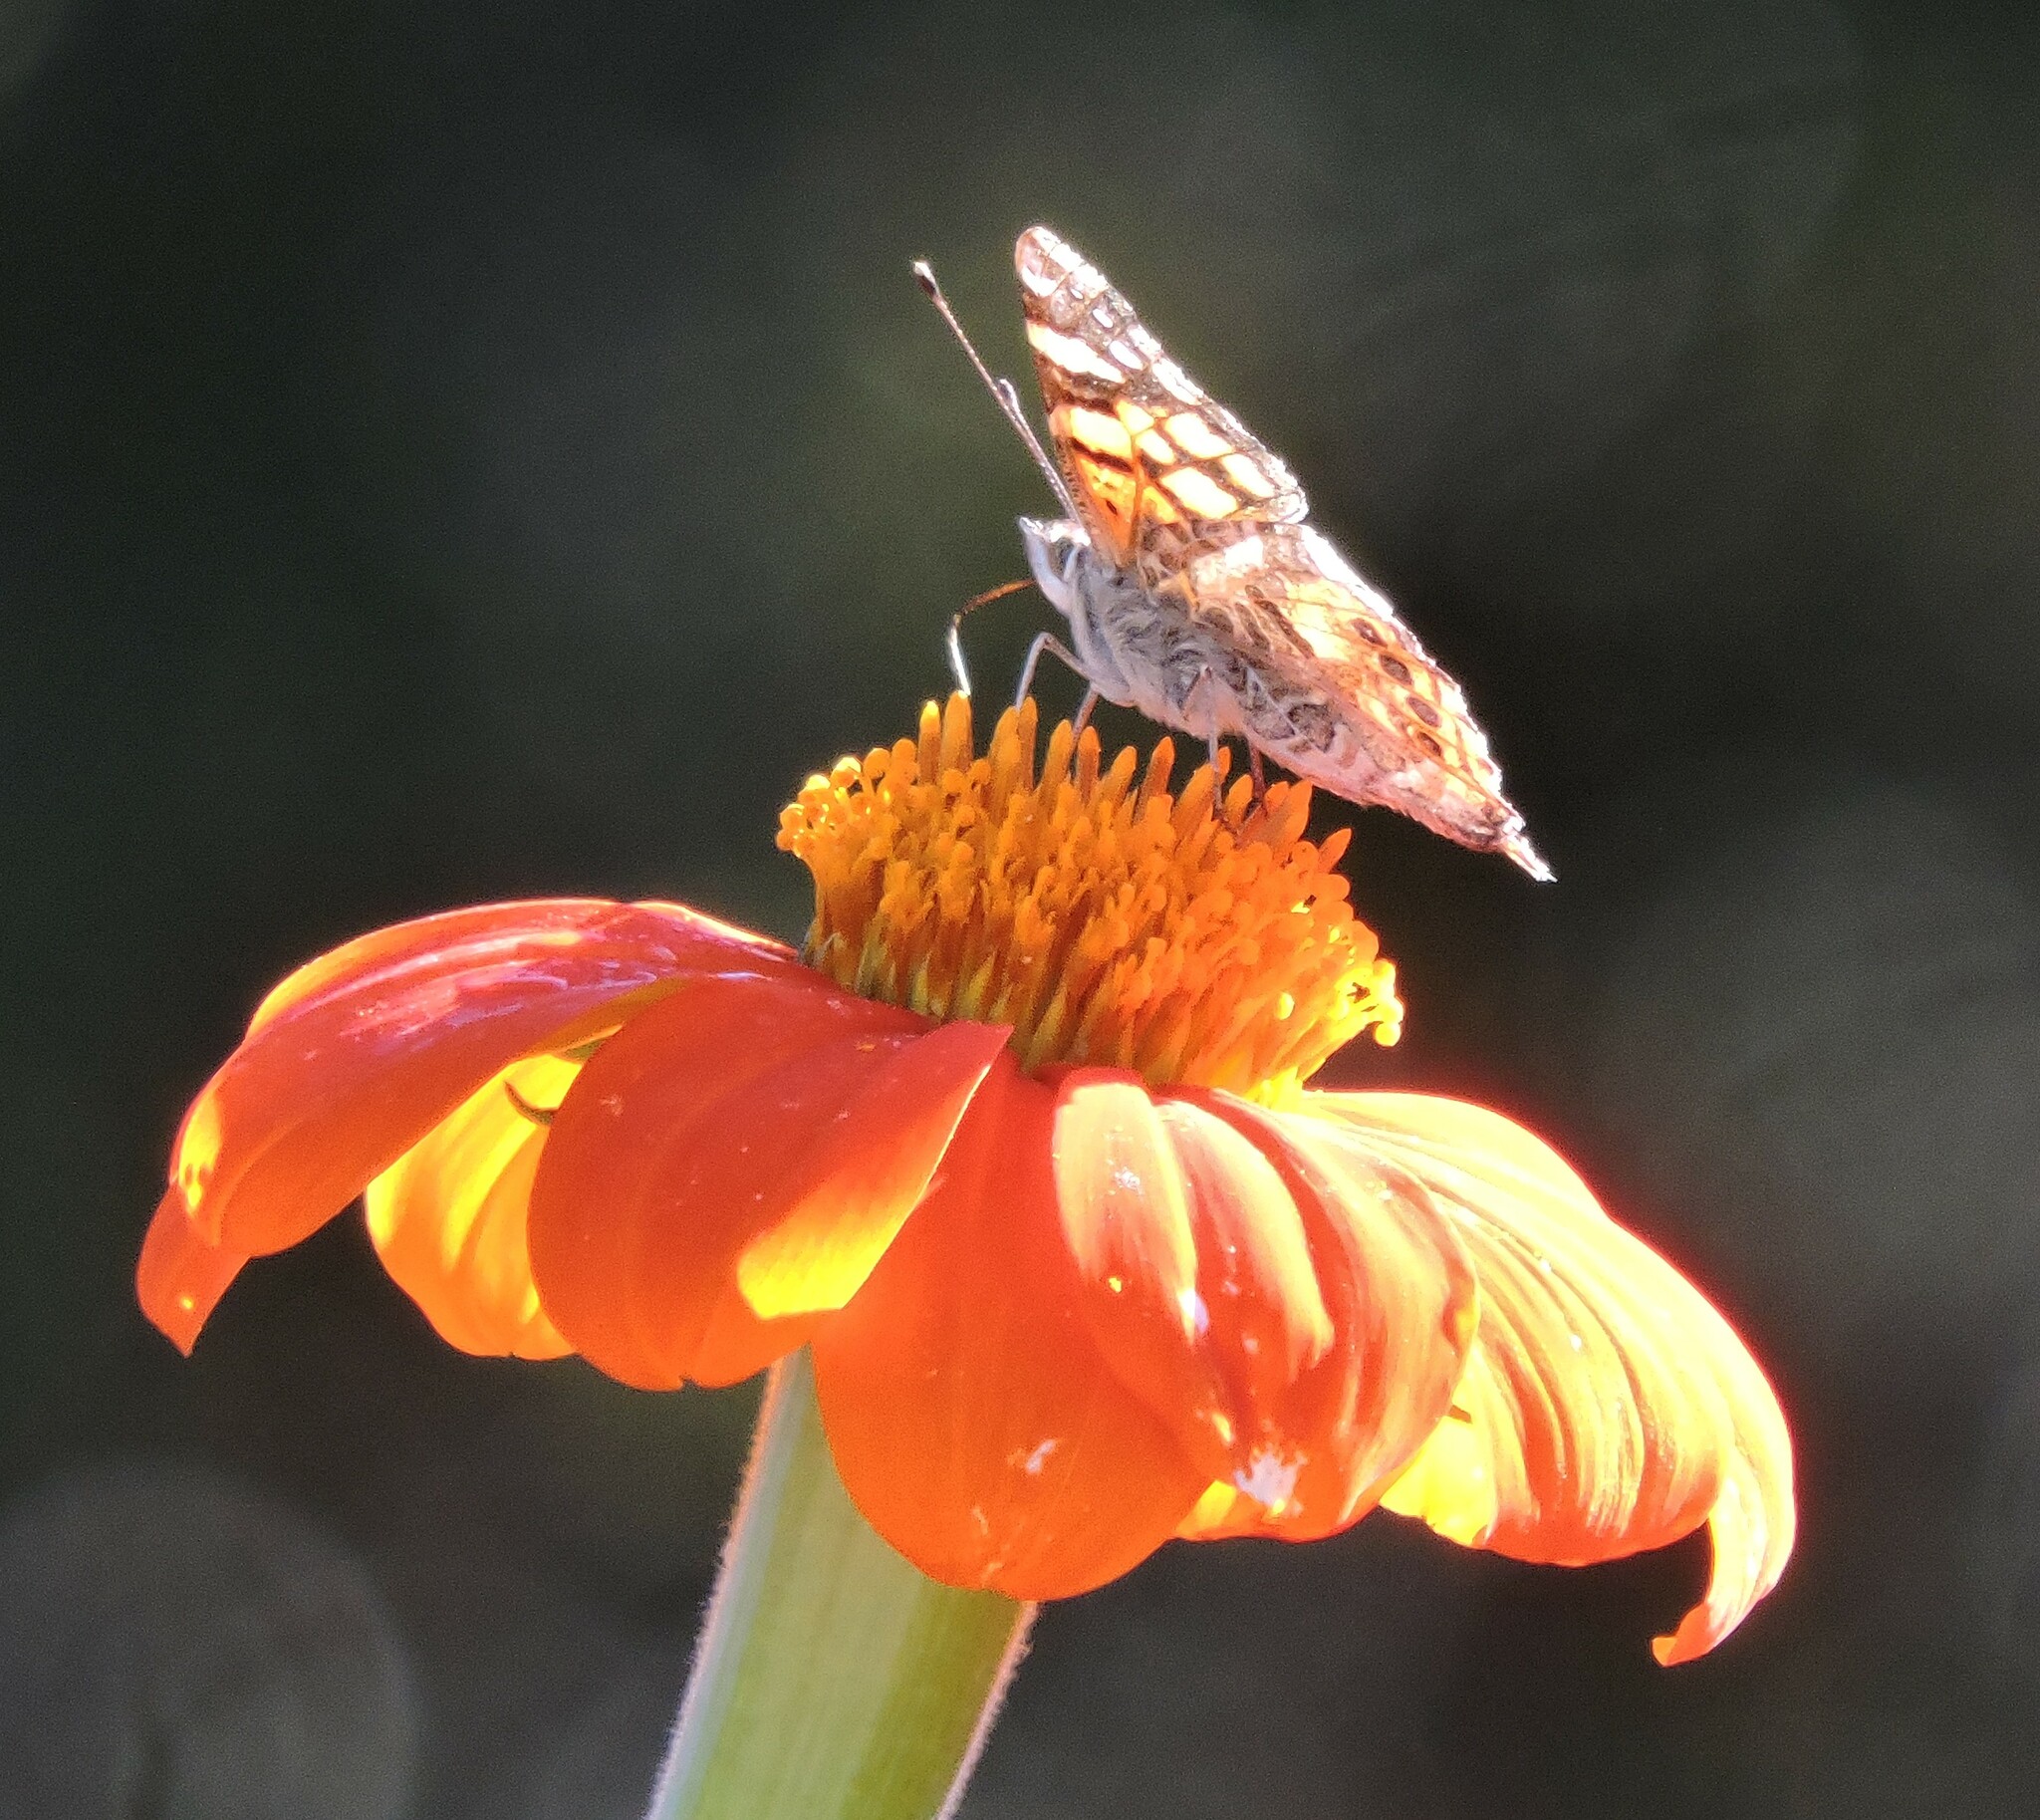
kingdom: Animalia
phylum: Arthropoda
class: Insecta
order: Lepidoptera
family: Nymphalidae
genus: Vanessa
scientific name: Vanessa annabella
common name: West coast lady
